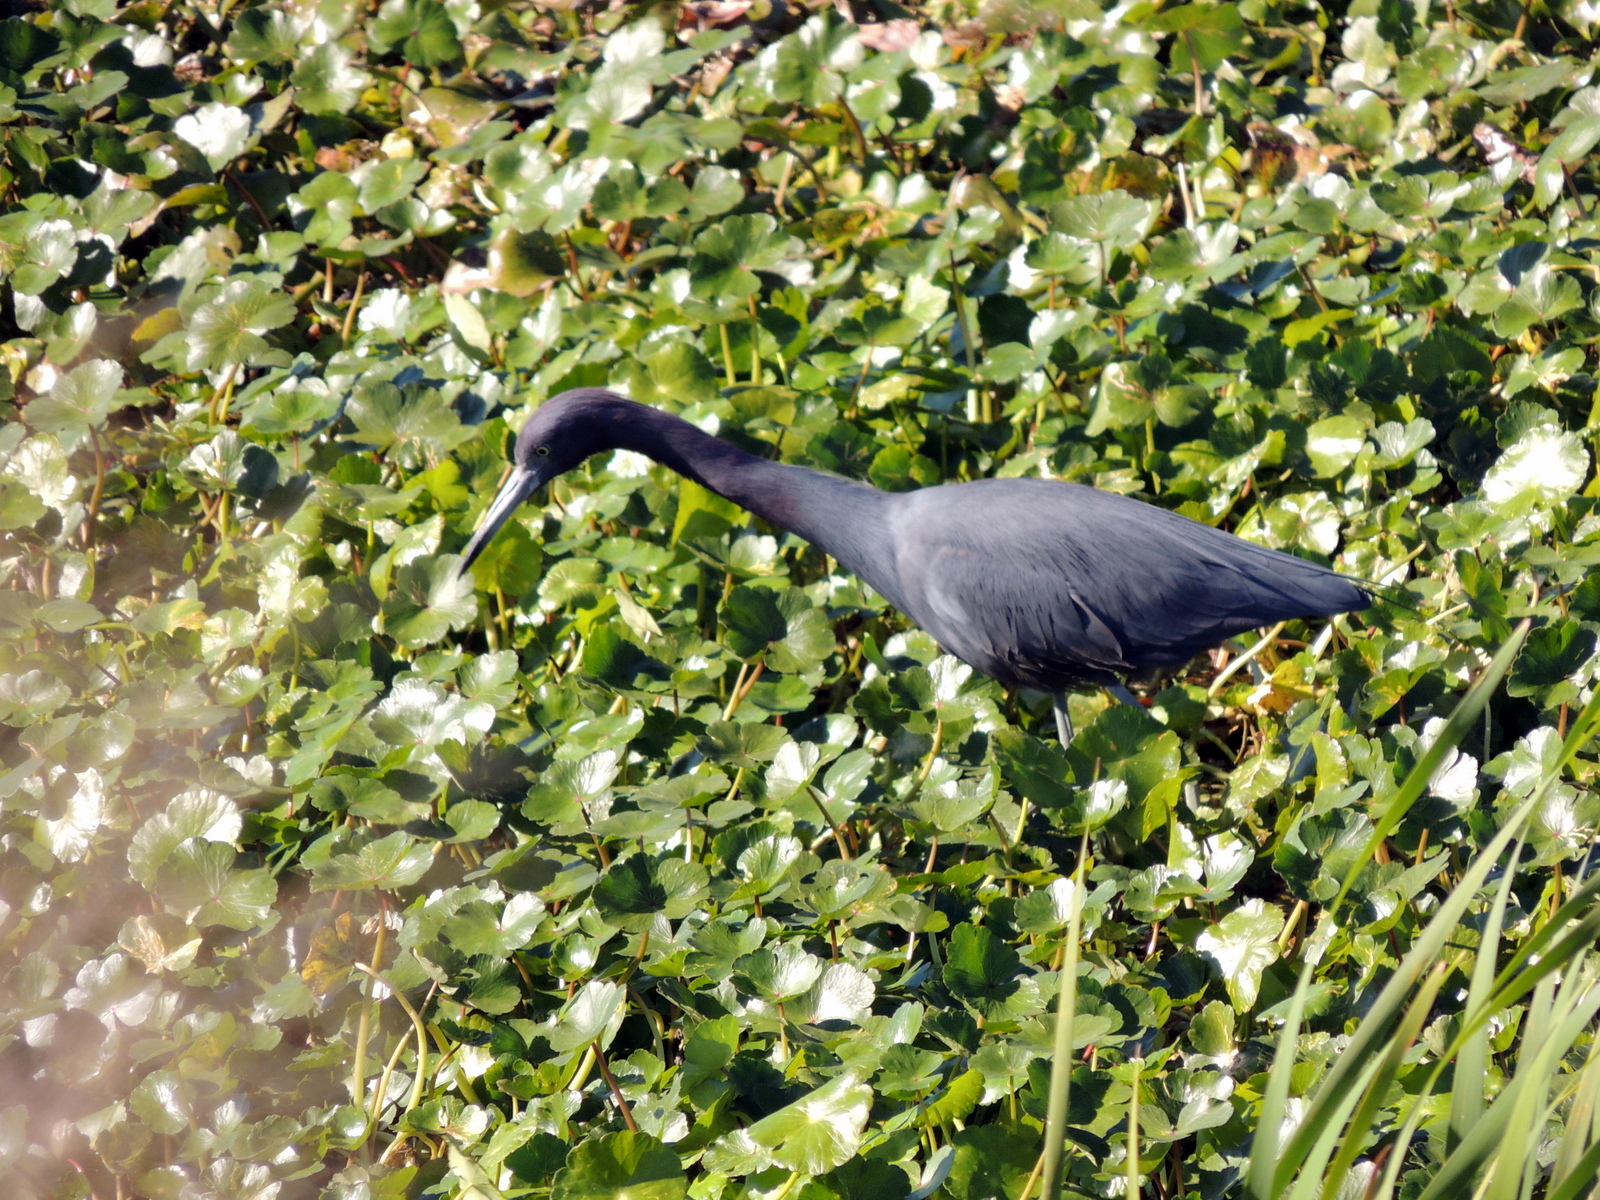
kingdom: Animalia
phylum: Chordata
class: Aves
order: Pelecaniformes
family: Ardeidae
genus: Egretta
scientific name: Egretta caerulea
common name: Little blue heron
